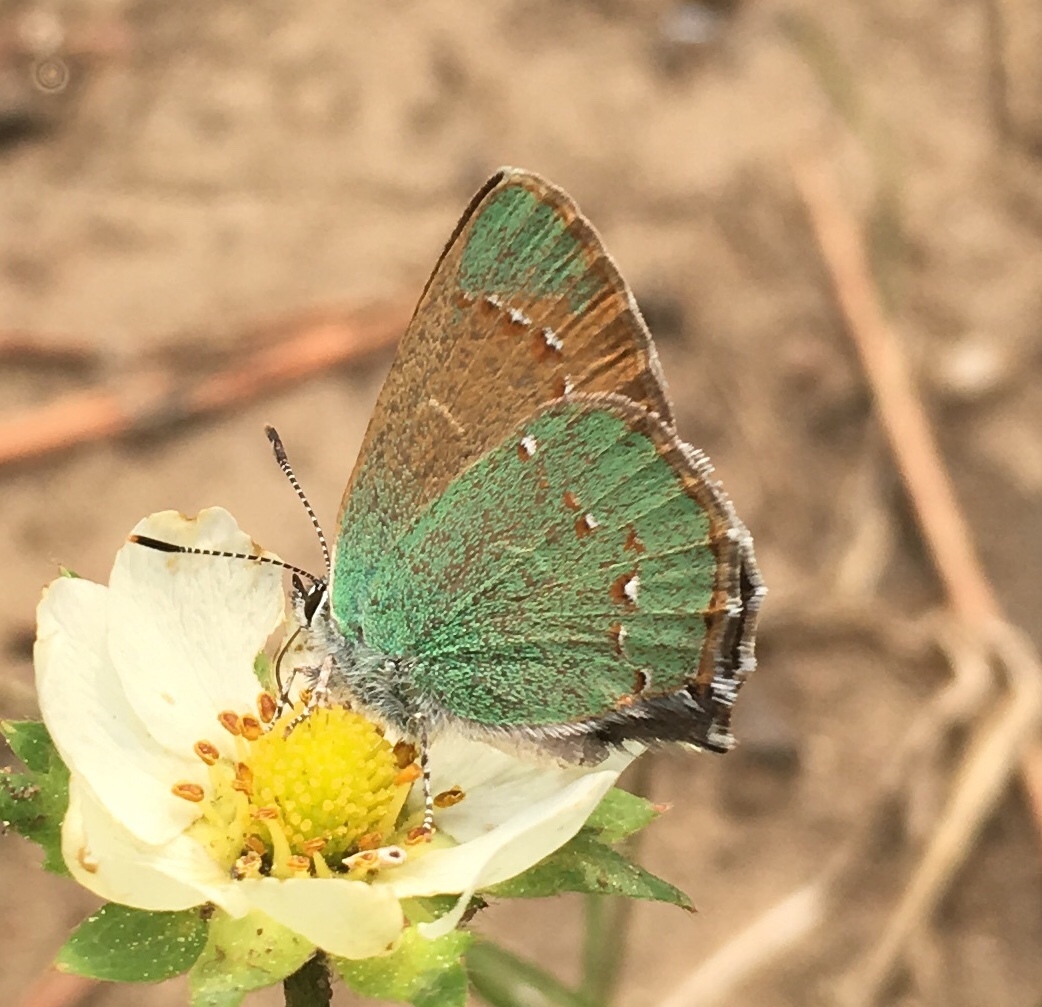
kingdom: Animalia
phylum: Arthropoda
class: Insecta
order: Lepidoptera
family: Lycaenidae
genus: Callophrys
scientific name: Callophrys affinis
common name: Western green hairstreak
